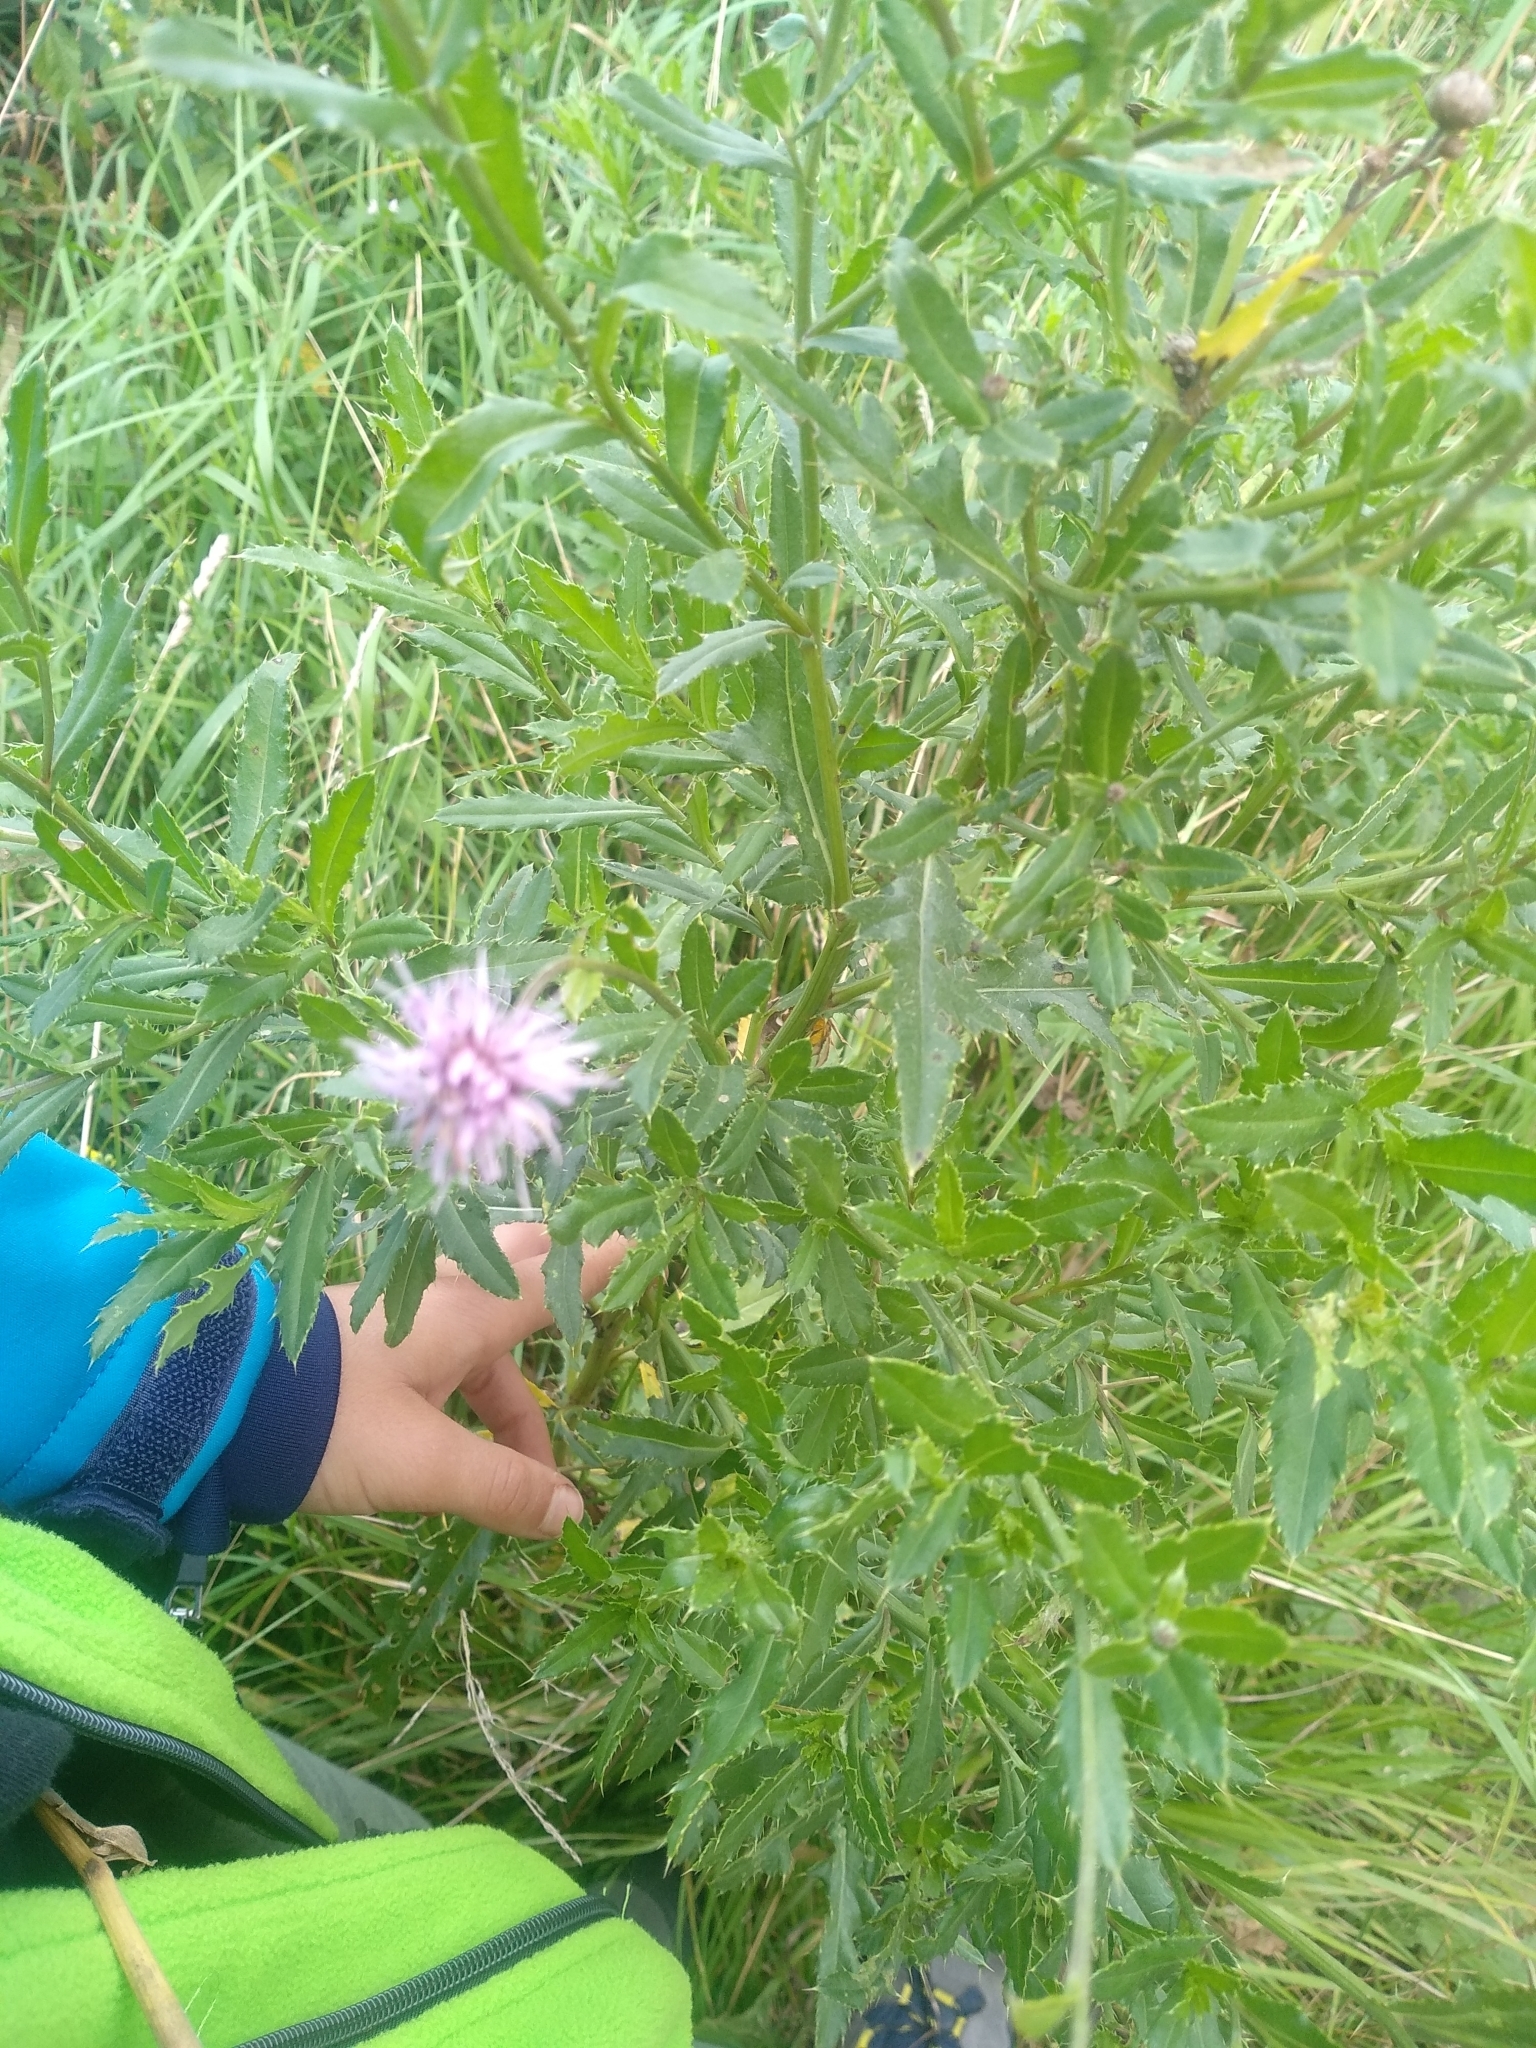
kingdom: Plantae
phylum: Tracheophyta
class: Magnoliopsida
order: Asterales
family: Asteraceae
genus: Cirsium
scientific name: Cirsium arvense
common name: Creeping thistle
